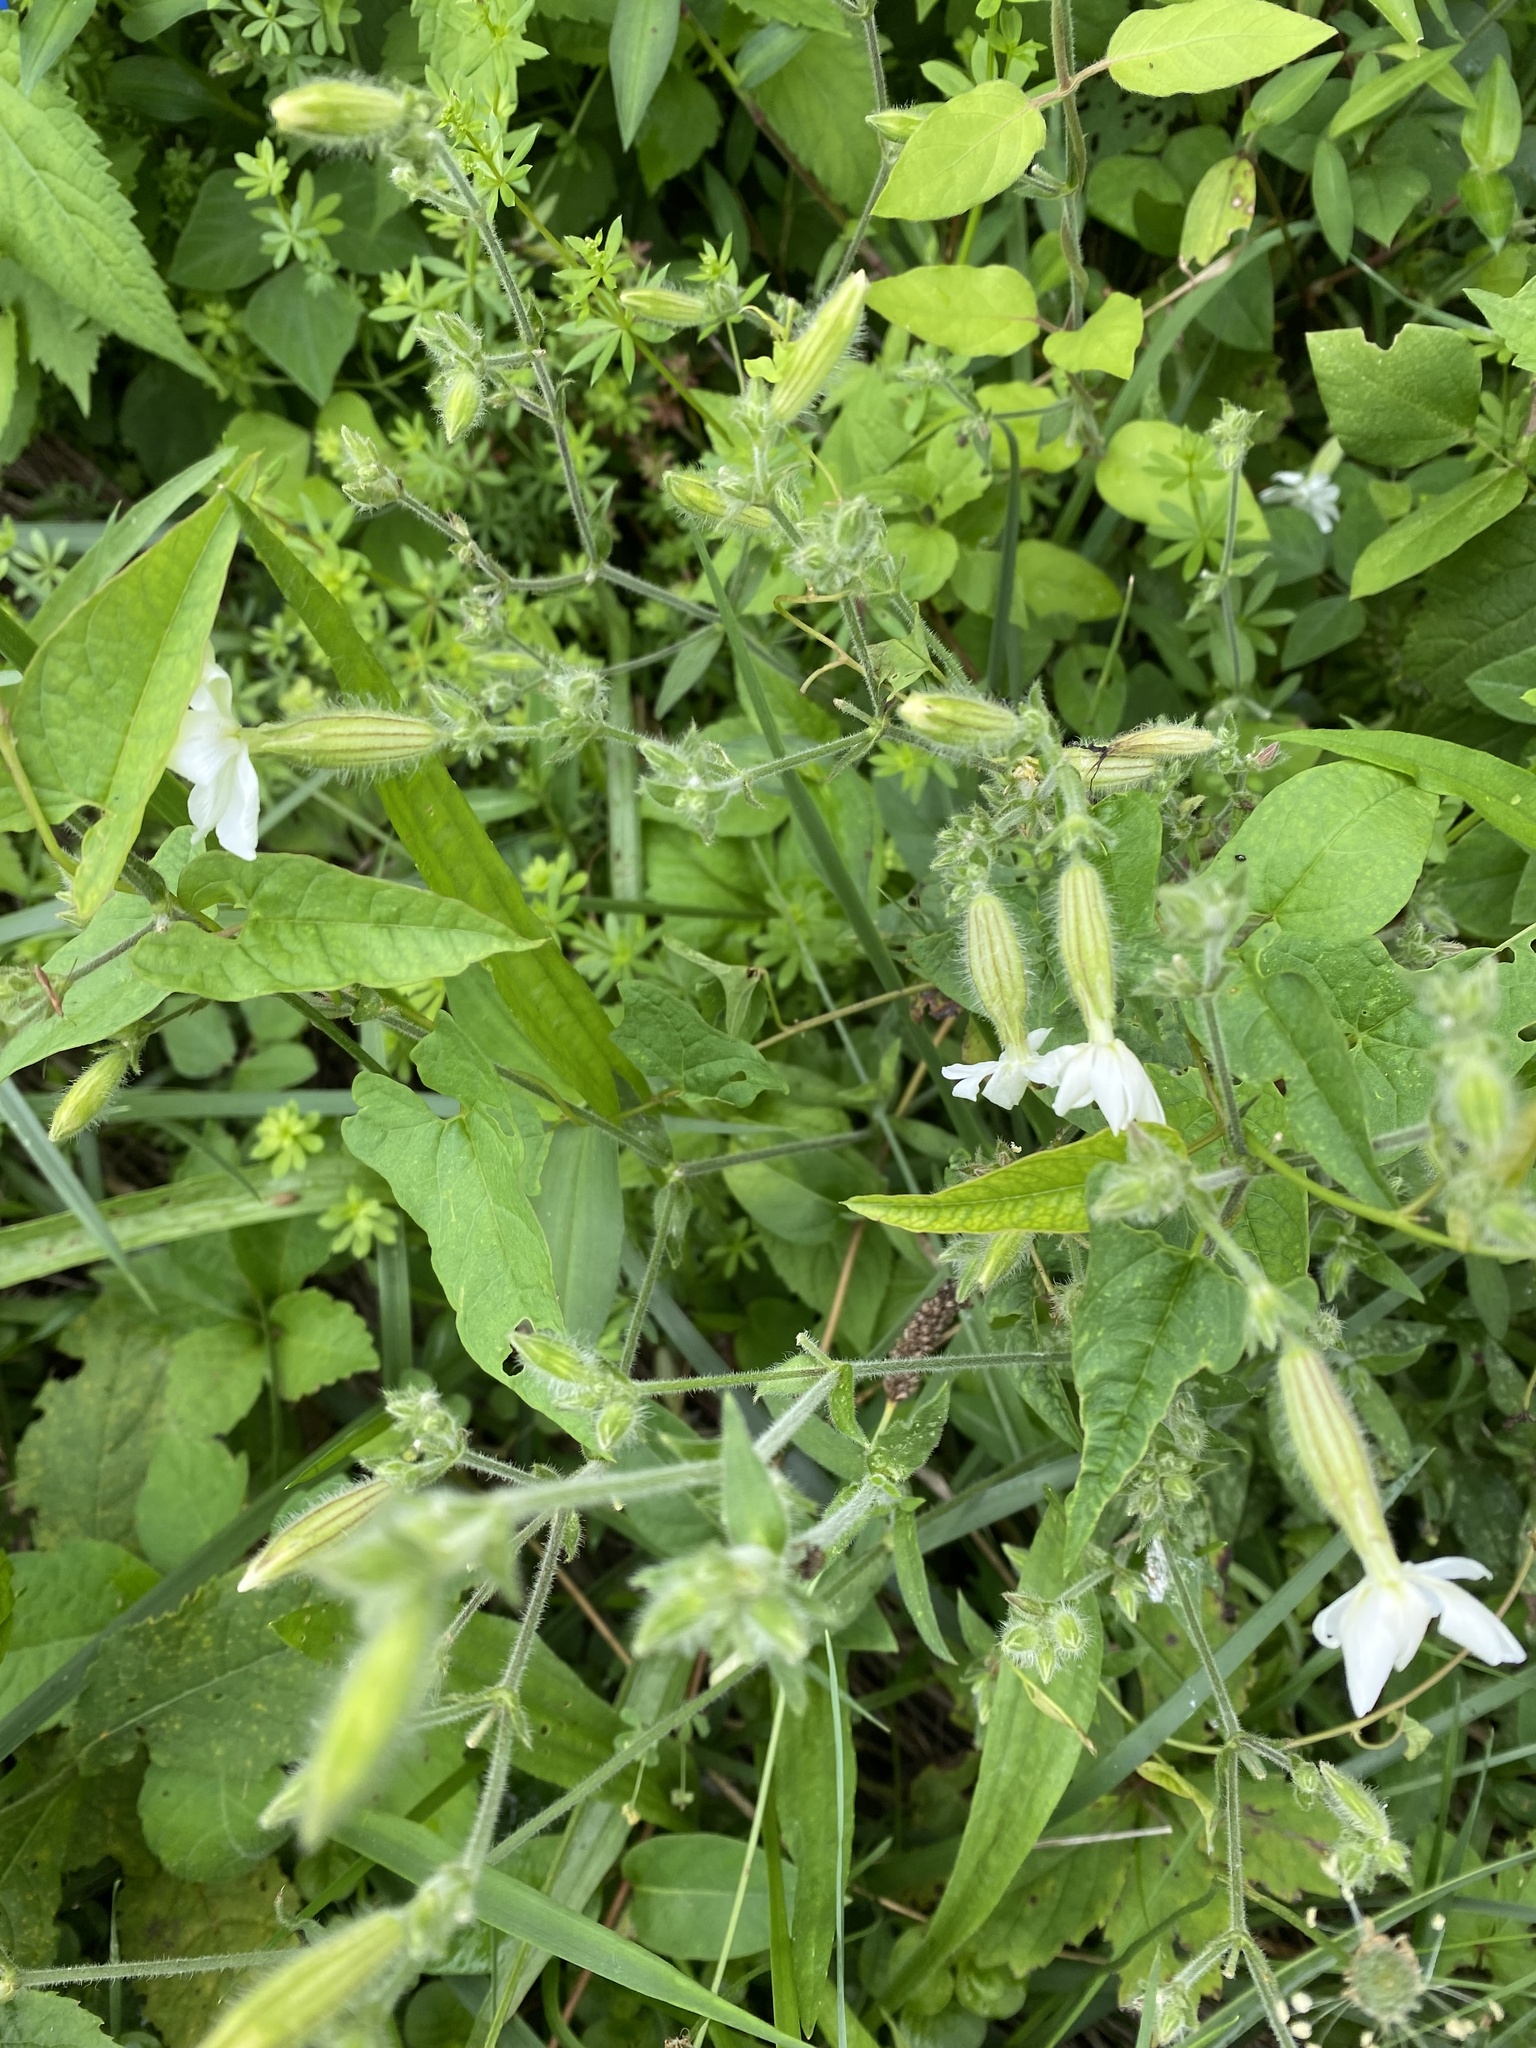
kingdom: Plantae
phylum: Tracheophyta
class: Magnoliopsida
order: Caryophyllales
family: Caryophyllaceae
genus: Silene
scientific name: Silene latifolia
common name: White campion
